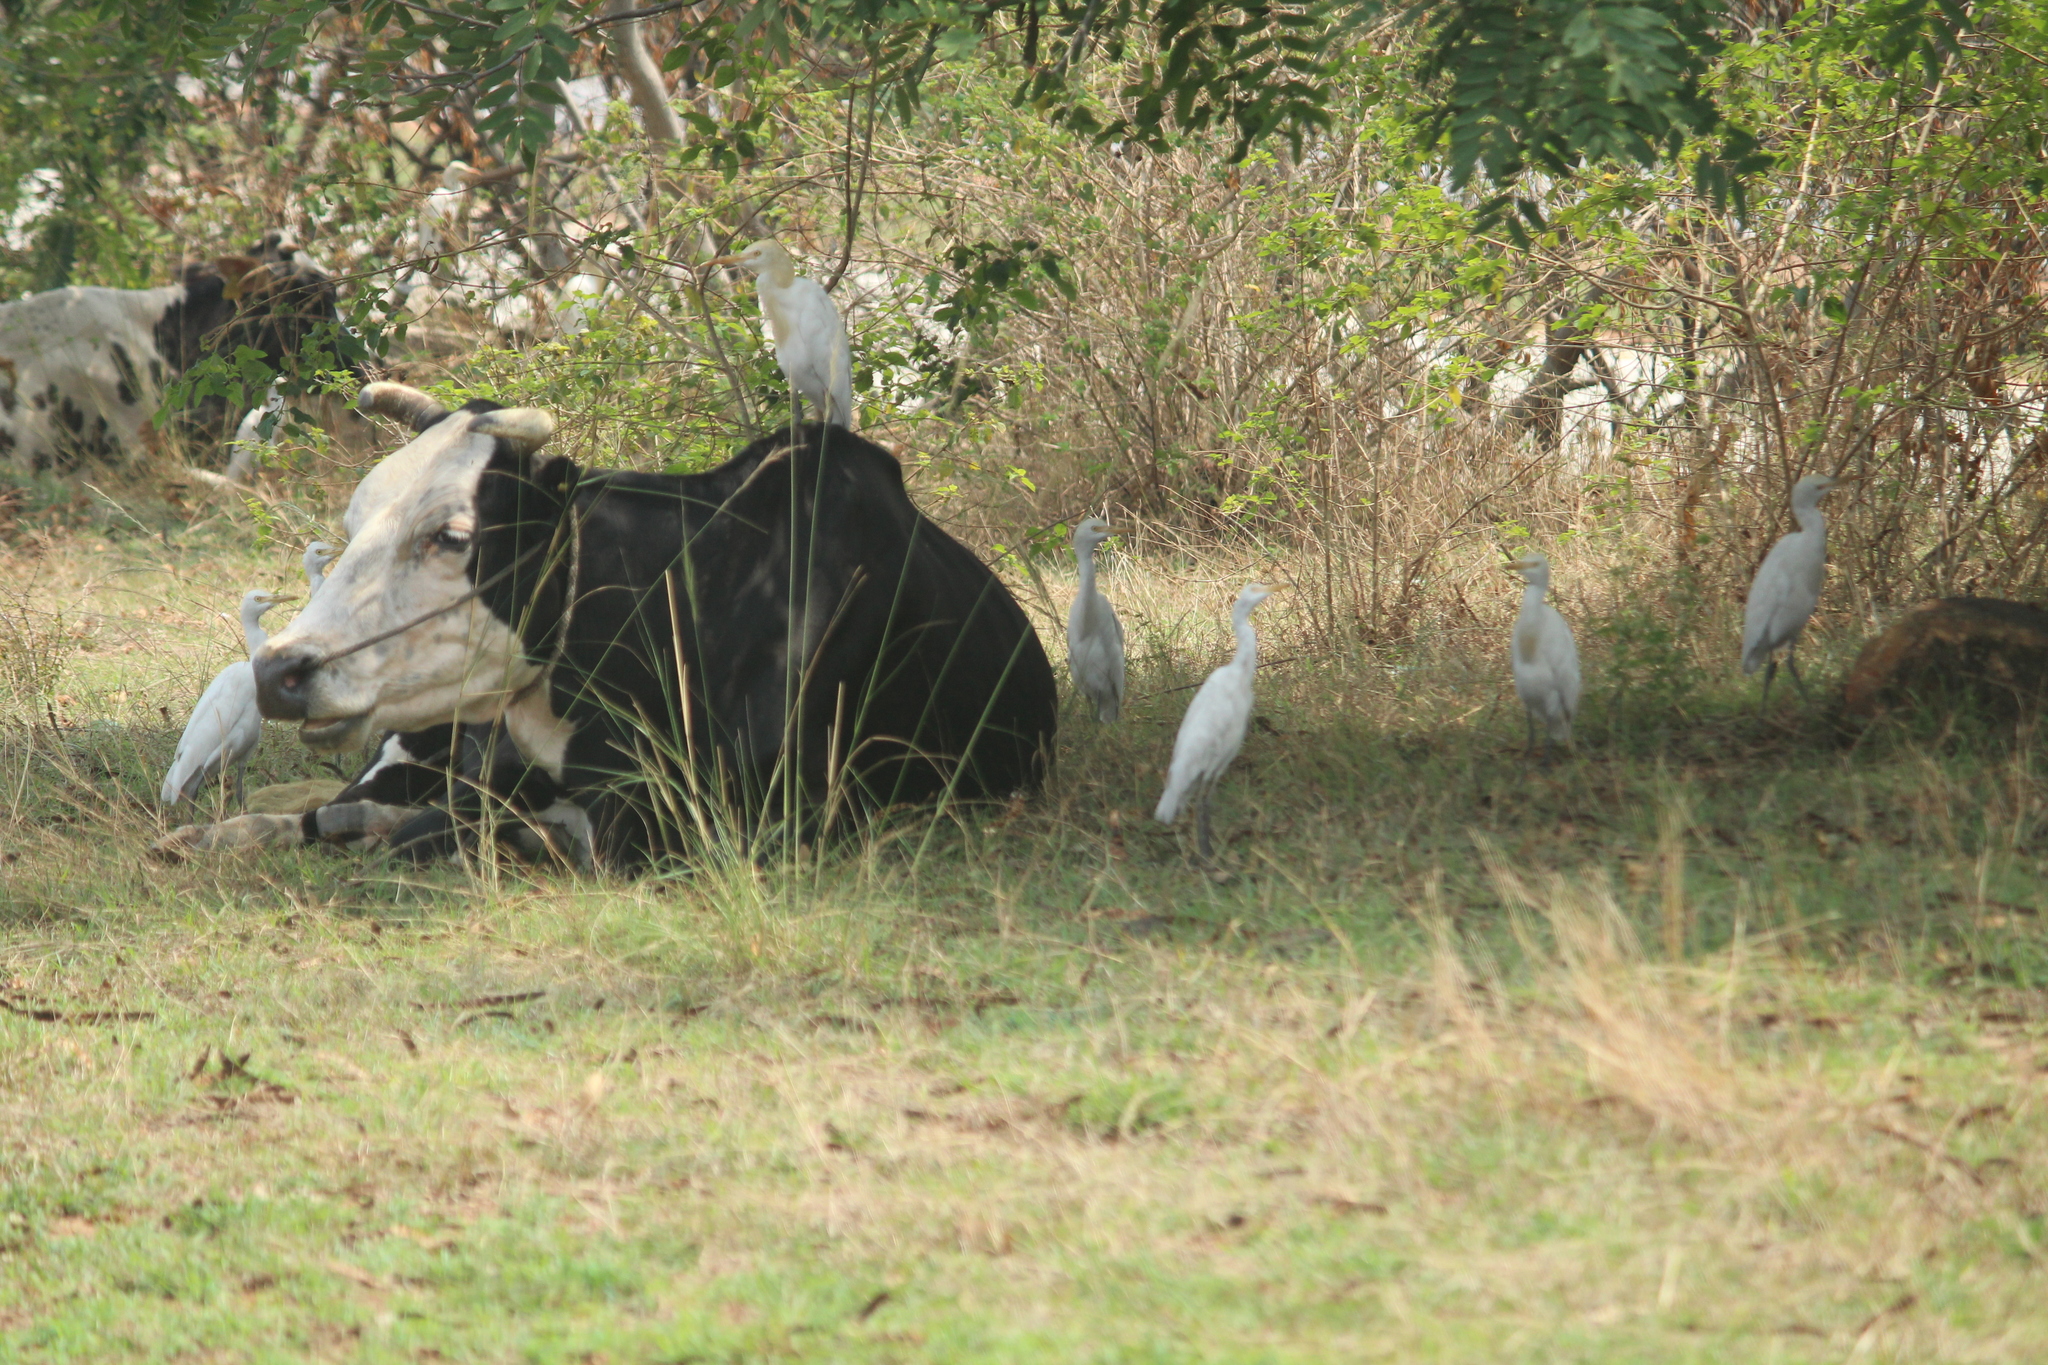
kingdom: Animalia
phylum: Chordata
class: Aves
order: Pelecaniformes
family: Ardeidae
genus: Bubulcus
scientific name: Bubulcus coromandus
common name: Eastern cattle egret
